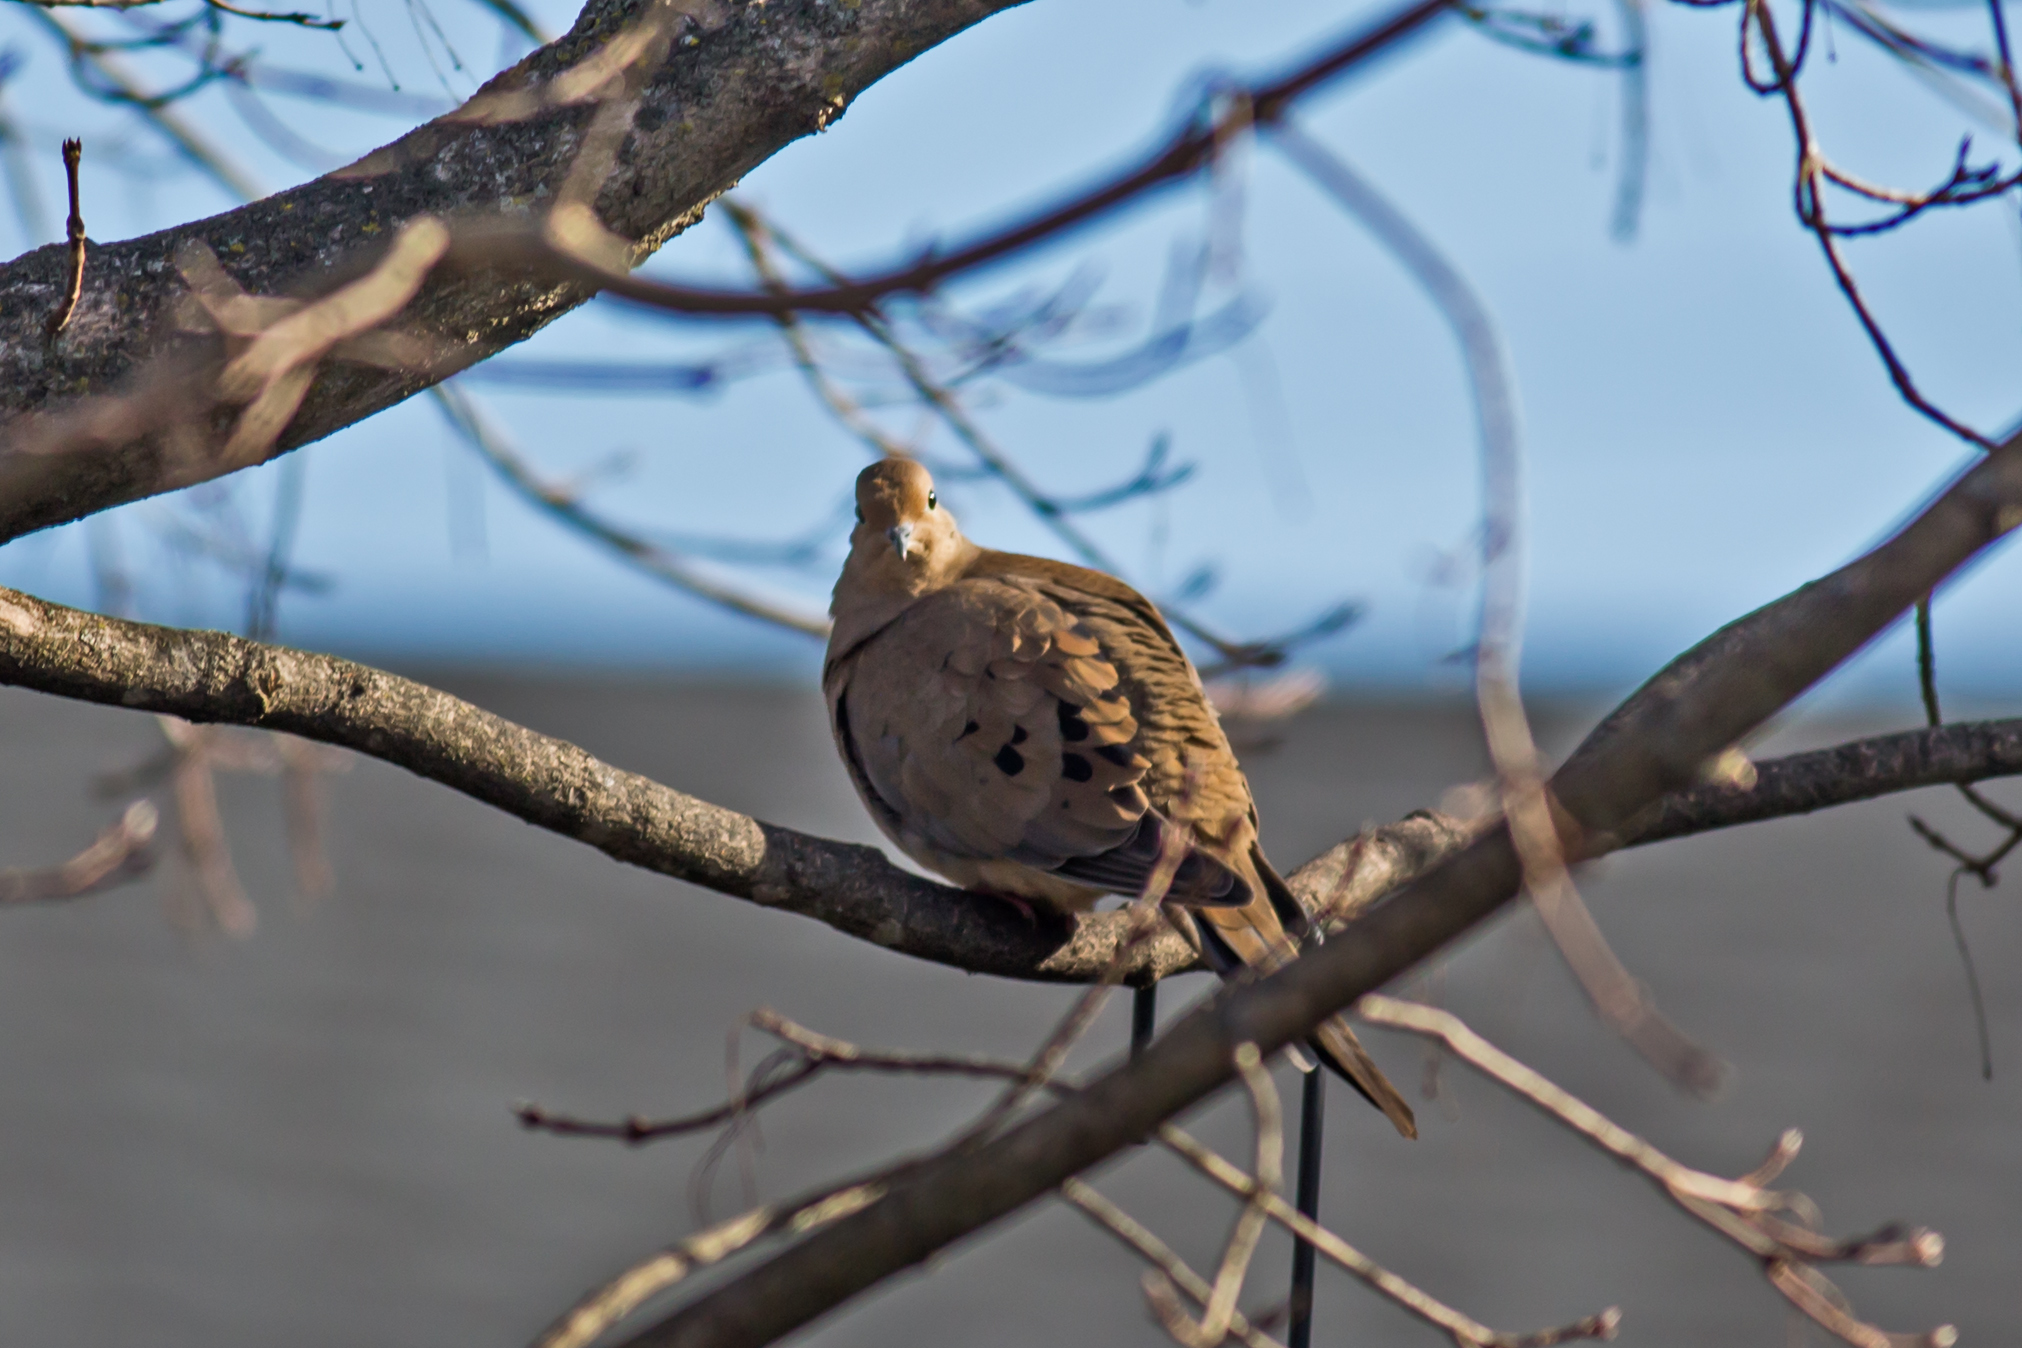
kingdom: Animalia
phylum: Chordata
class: Aves
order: Columbiformes
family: Columbidae
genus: Zenaida
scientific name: Zenaida macroura
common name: Mourning dove
